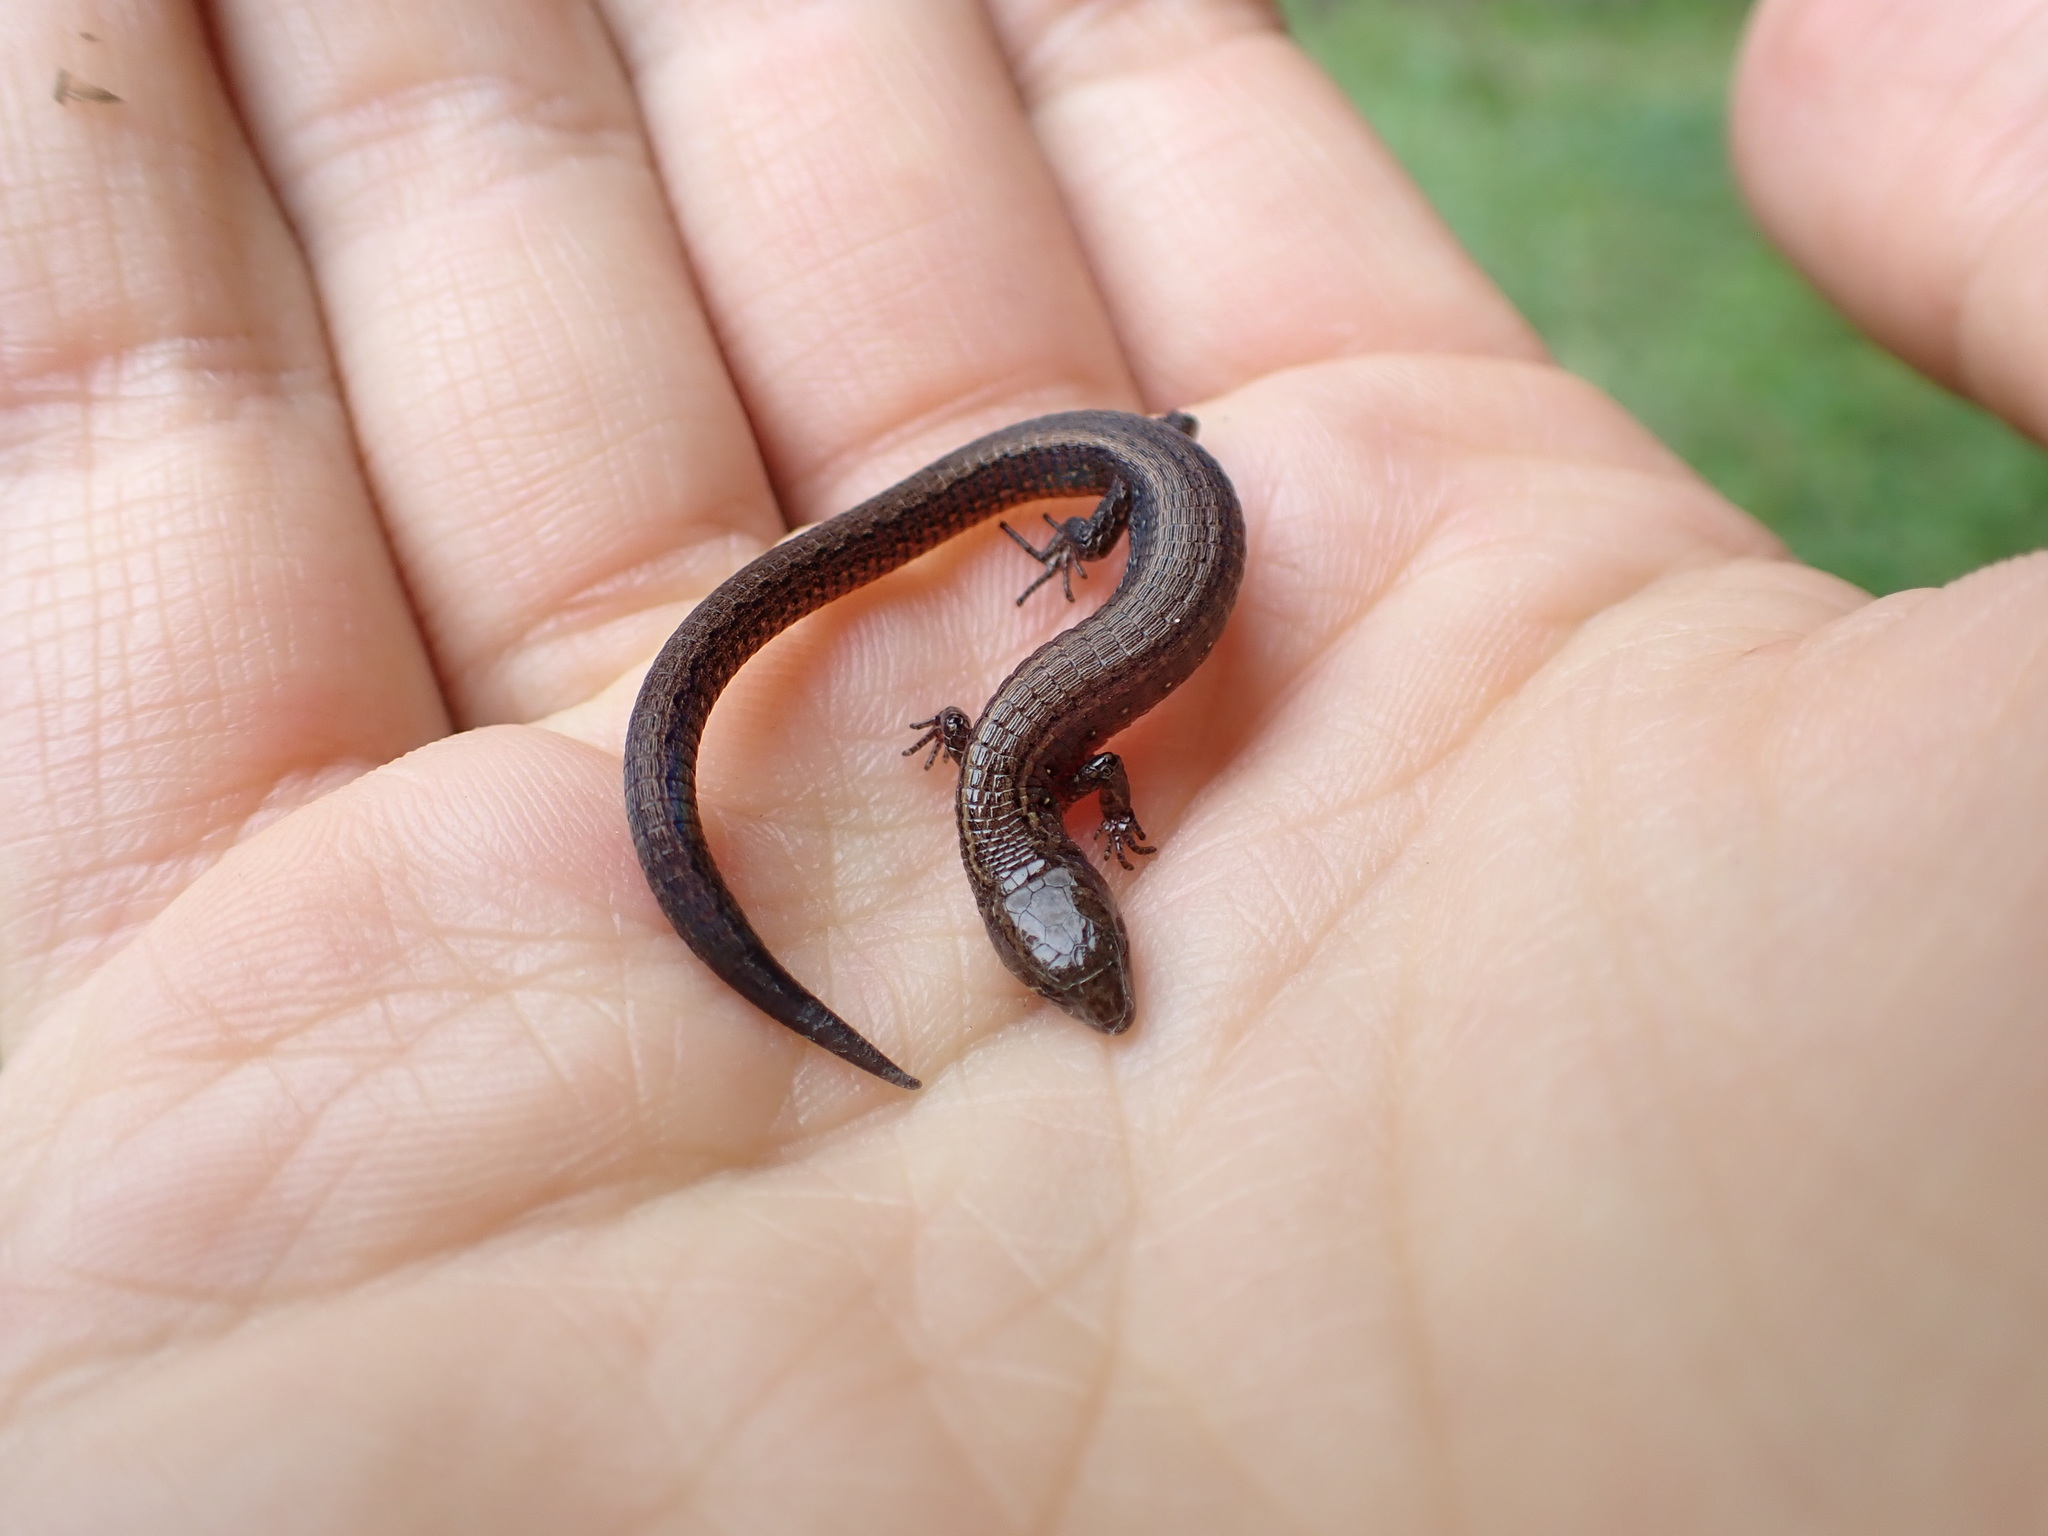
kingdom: Animalia
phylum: Chordata
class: Squamata
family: Gymnophthalmidae
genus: Proctoporus
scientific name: Proctoporus optimus
